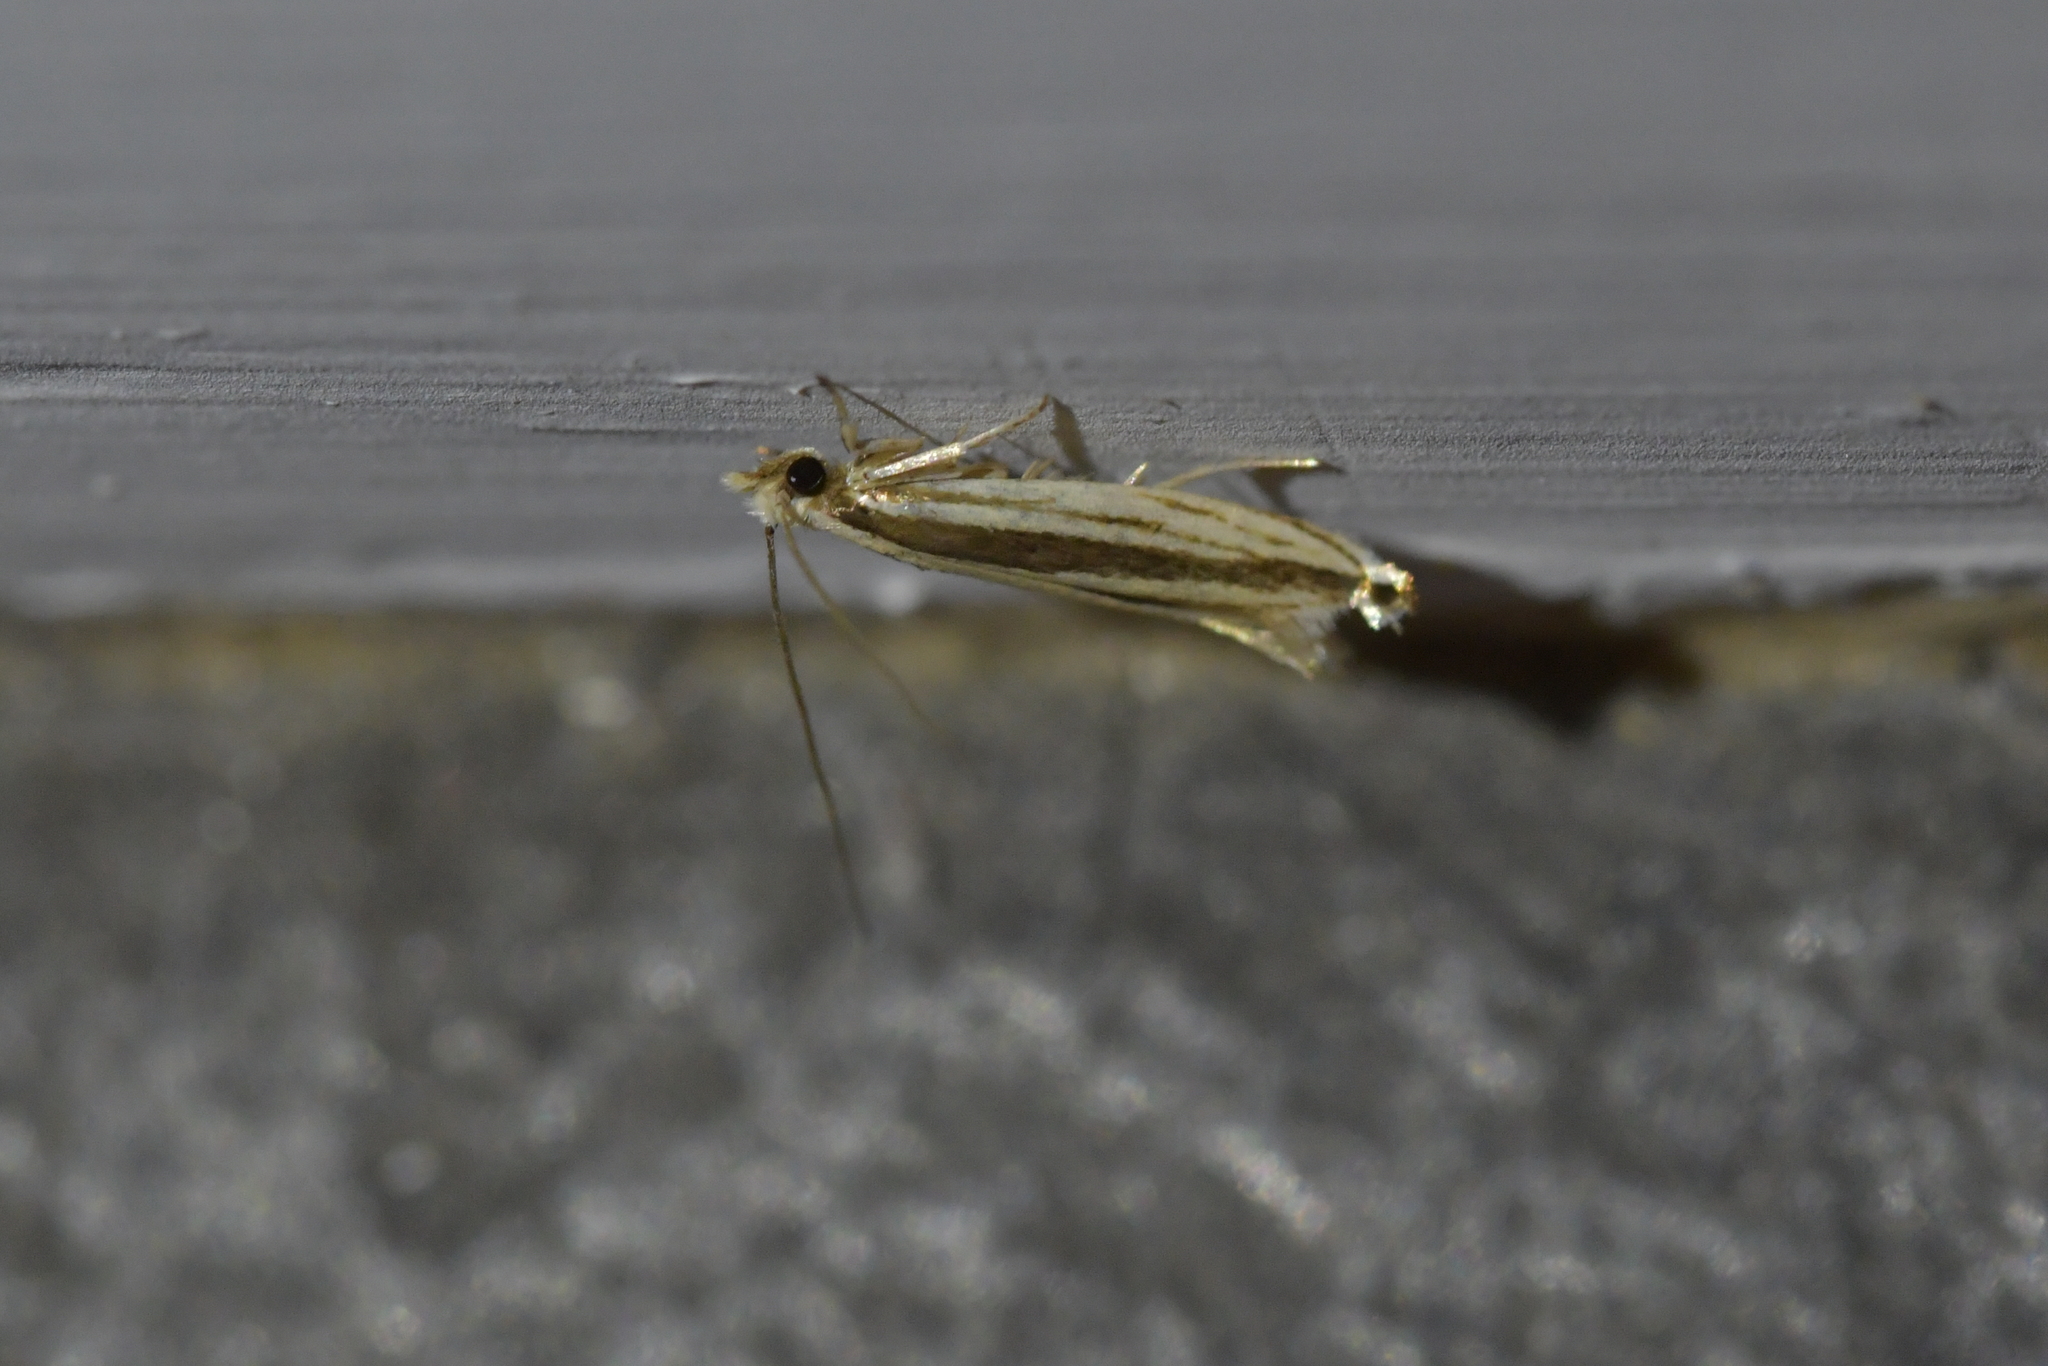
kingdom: Animalia
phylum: Arthropoda
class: Insecta
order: Lepidoptera
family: Tineidae
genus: Erechthias
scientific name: Erechthias stilbella
